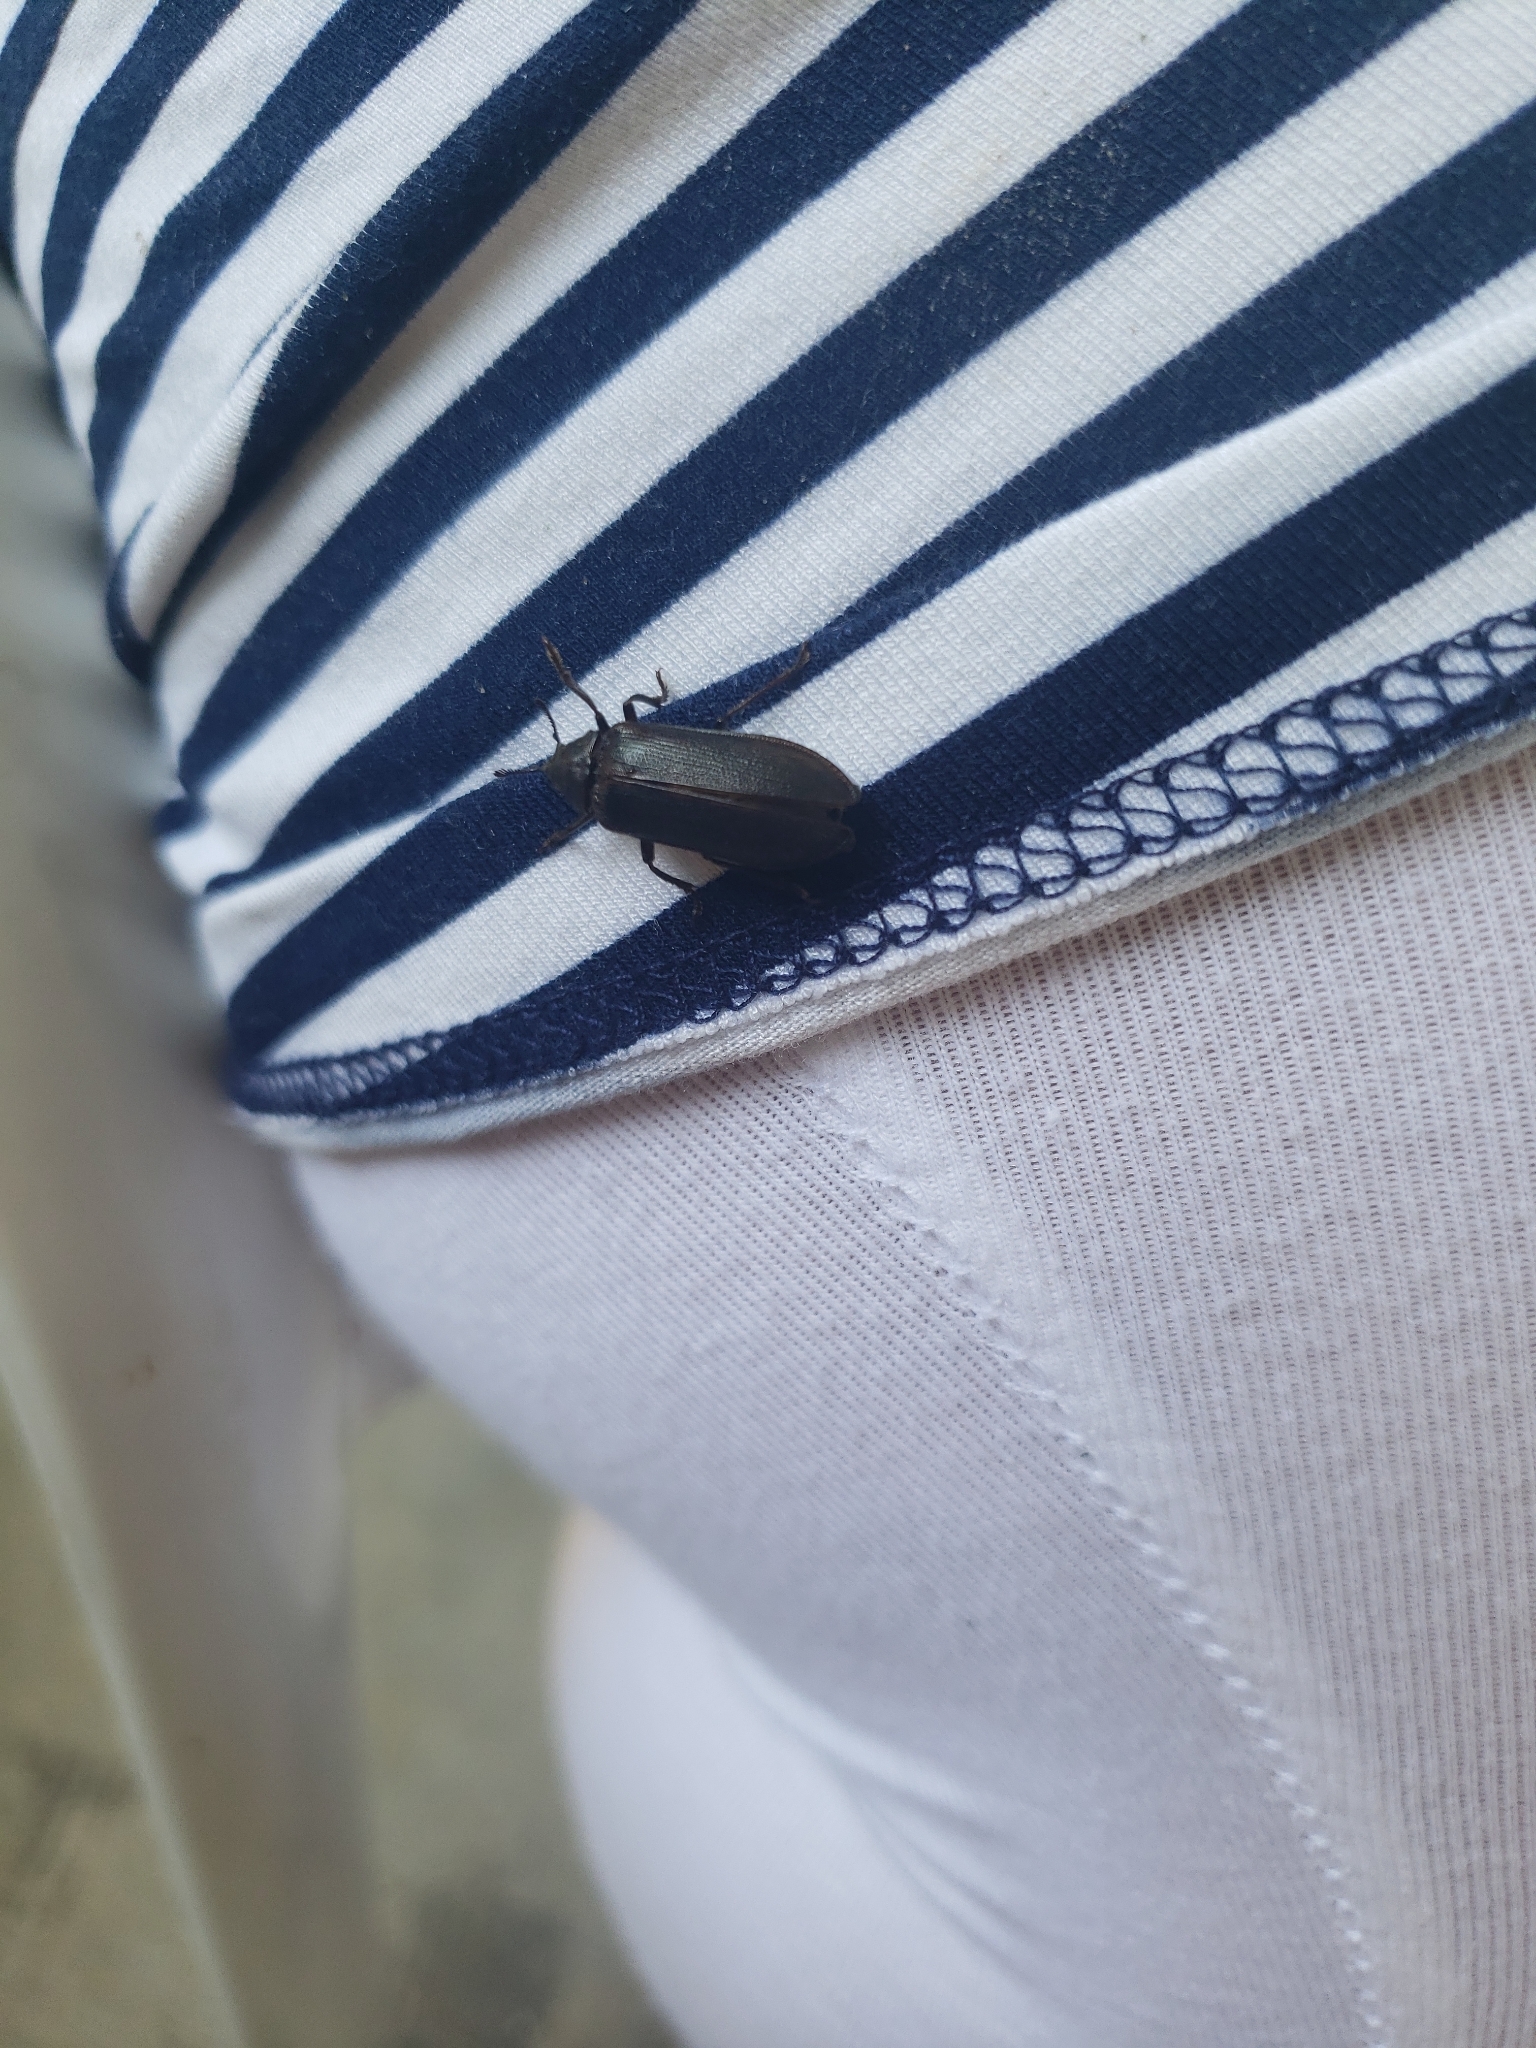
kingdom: Animalia
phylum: Arthropoda
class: Insecta
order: Coleoptera
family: Rhipiceridae
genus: Sandalus
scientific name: Sandalus niger
